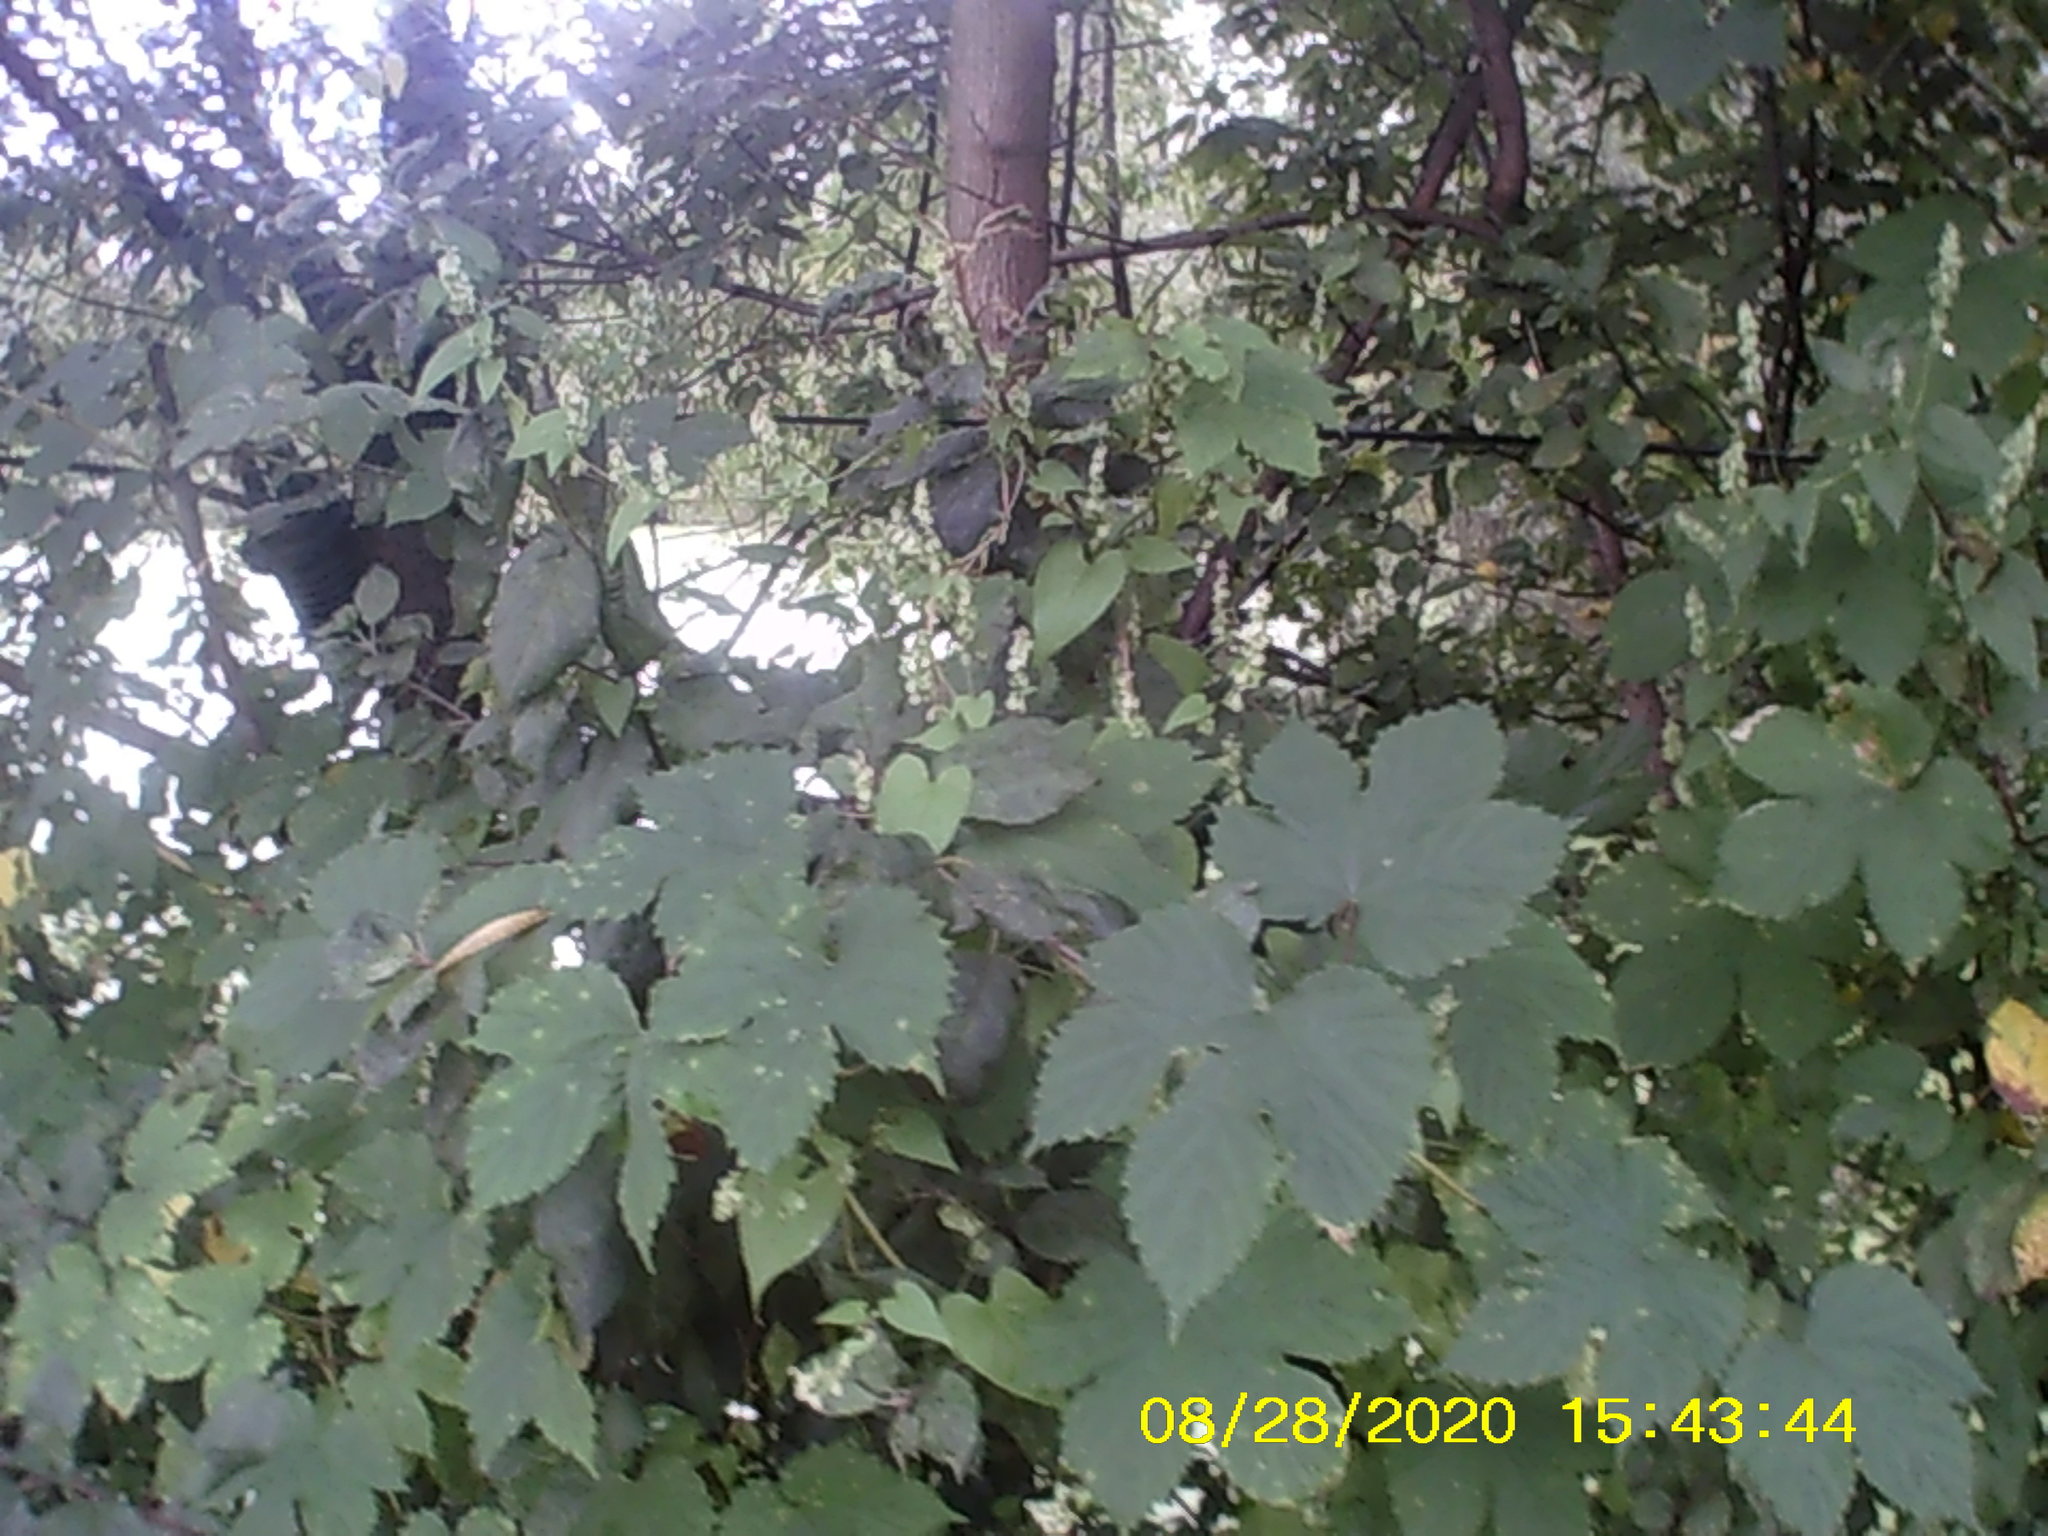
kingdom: Plantae
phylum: Tracheophyta
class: Magnoliopsida
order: Caryophyllales
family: Polygonaceae
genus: Fallopia
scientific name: Fallopia dumetorum
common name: Copse-bindweed
